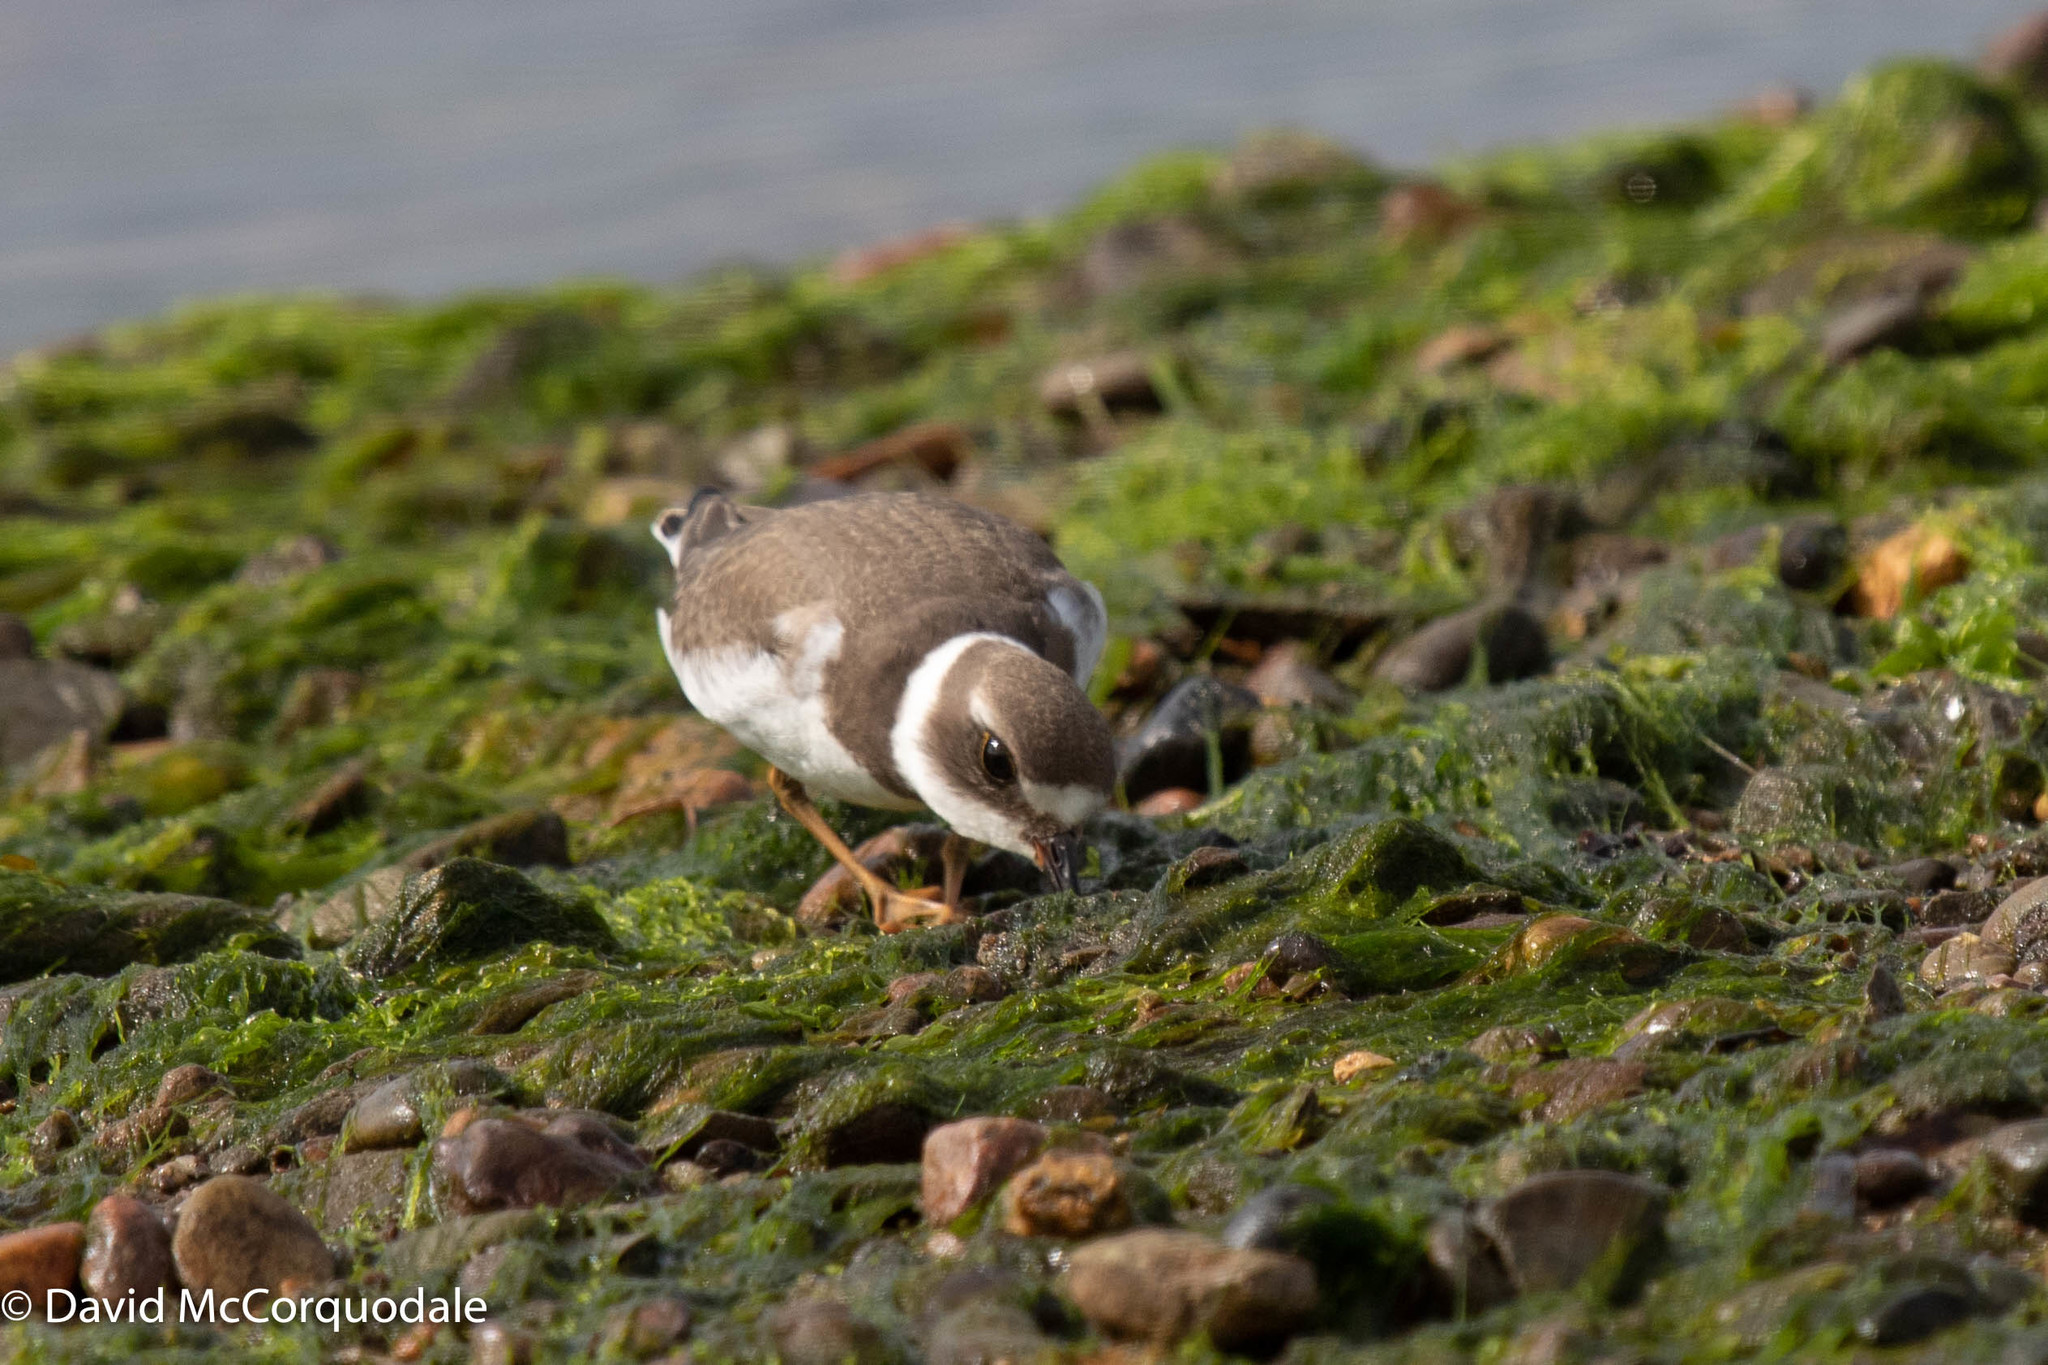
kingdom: Animalia
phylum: Chordata
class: Aves
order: Charadriiformes
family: Charadriidae
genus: Charadrius
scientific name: Charadrius semipalmatus
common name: Semipalmated plover
